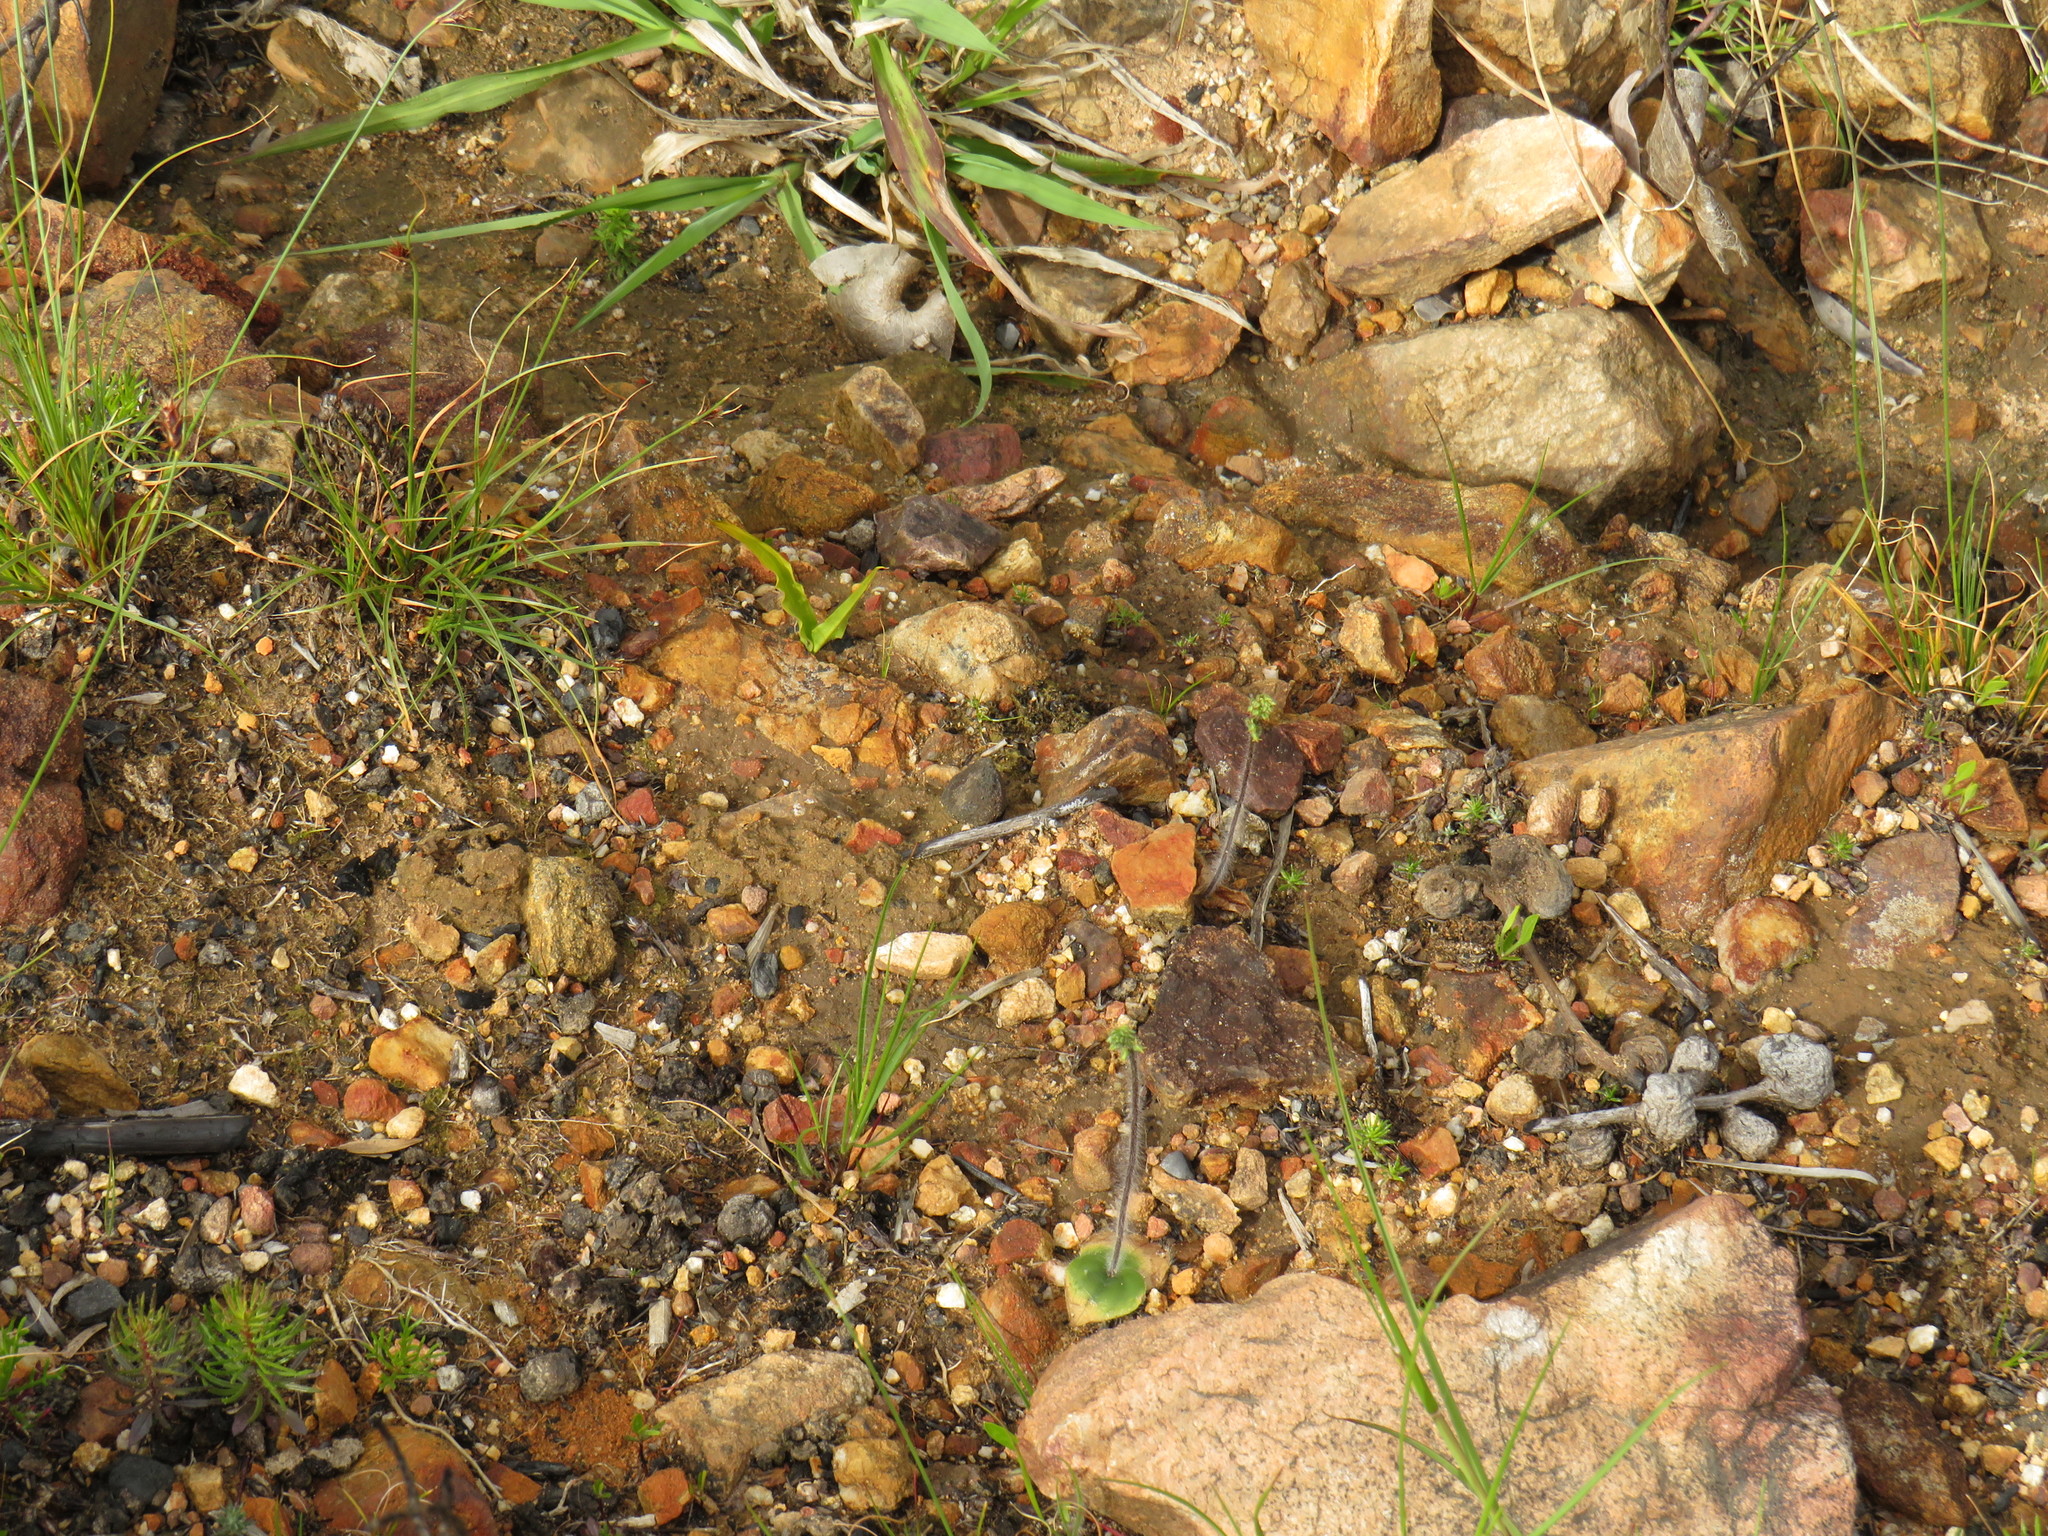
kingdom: Plantae
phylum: Tracheophyta
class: Liliopsida
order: Asparagales
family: Orchidaceae
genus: Holothrix
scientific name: Holothrix villosa
